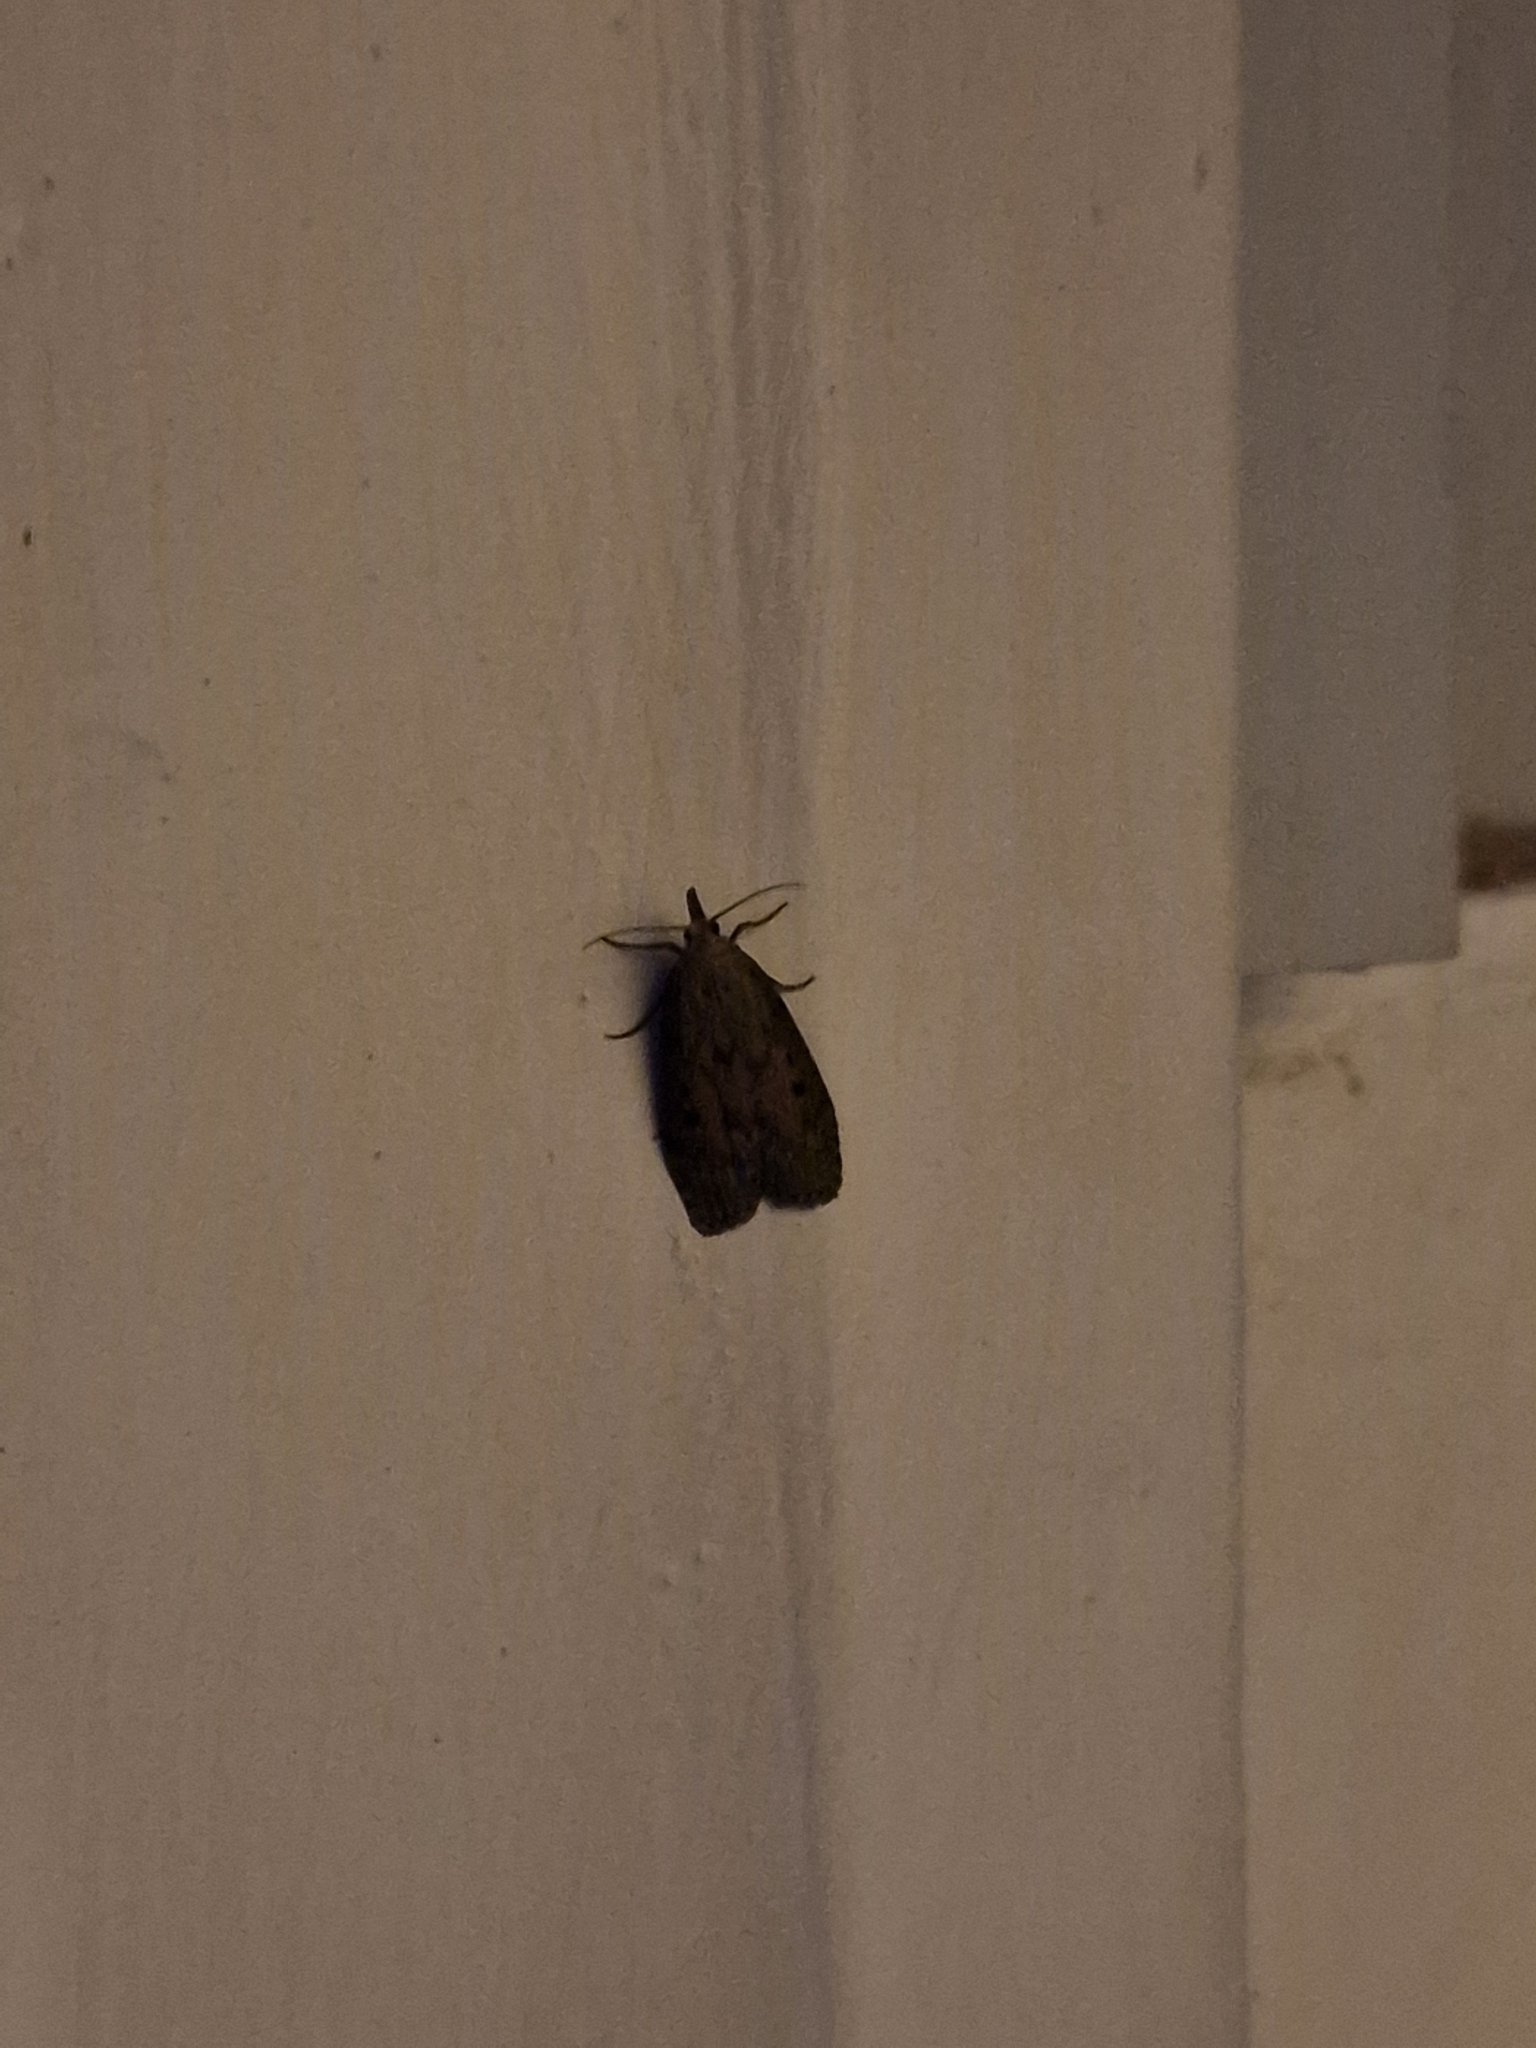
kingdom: Animalia
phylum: Arthropoda
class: Insecta
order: Lepidoptera
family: Pyralidae
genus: Aphomia
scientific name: Aphomia sociella
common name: Bee moth
